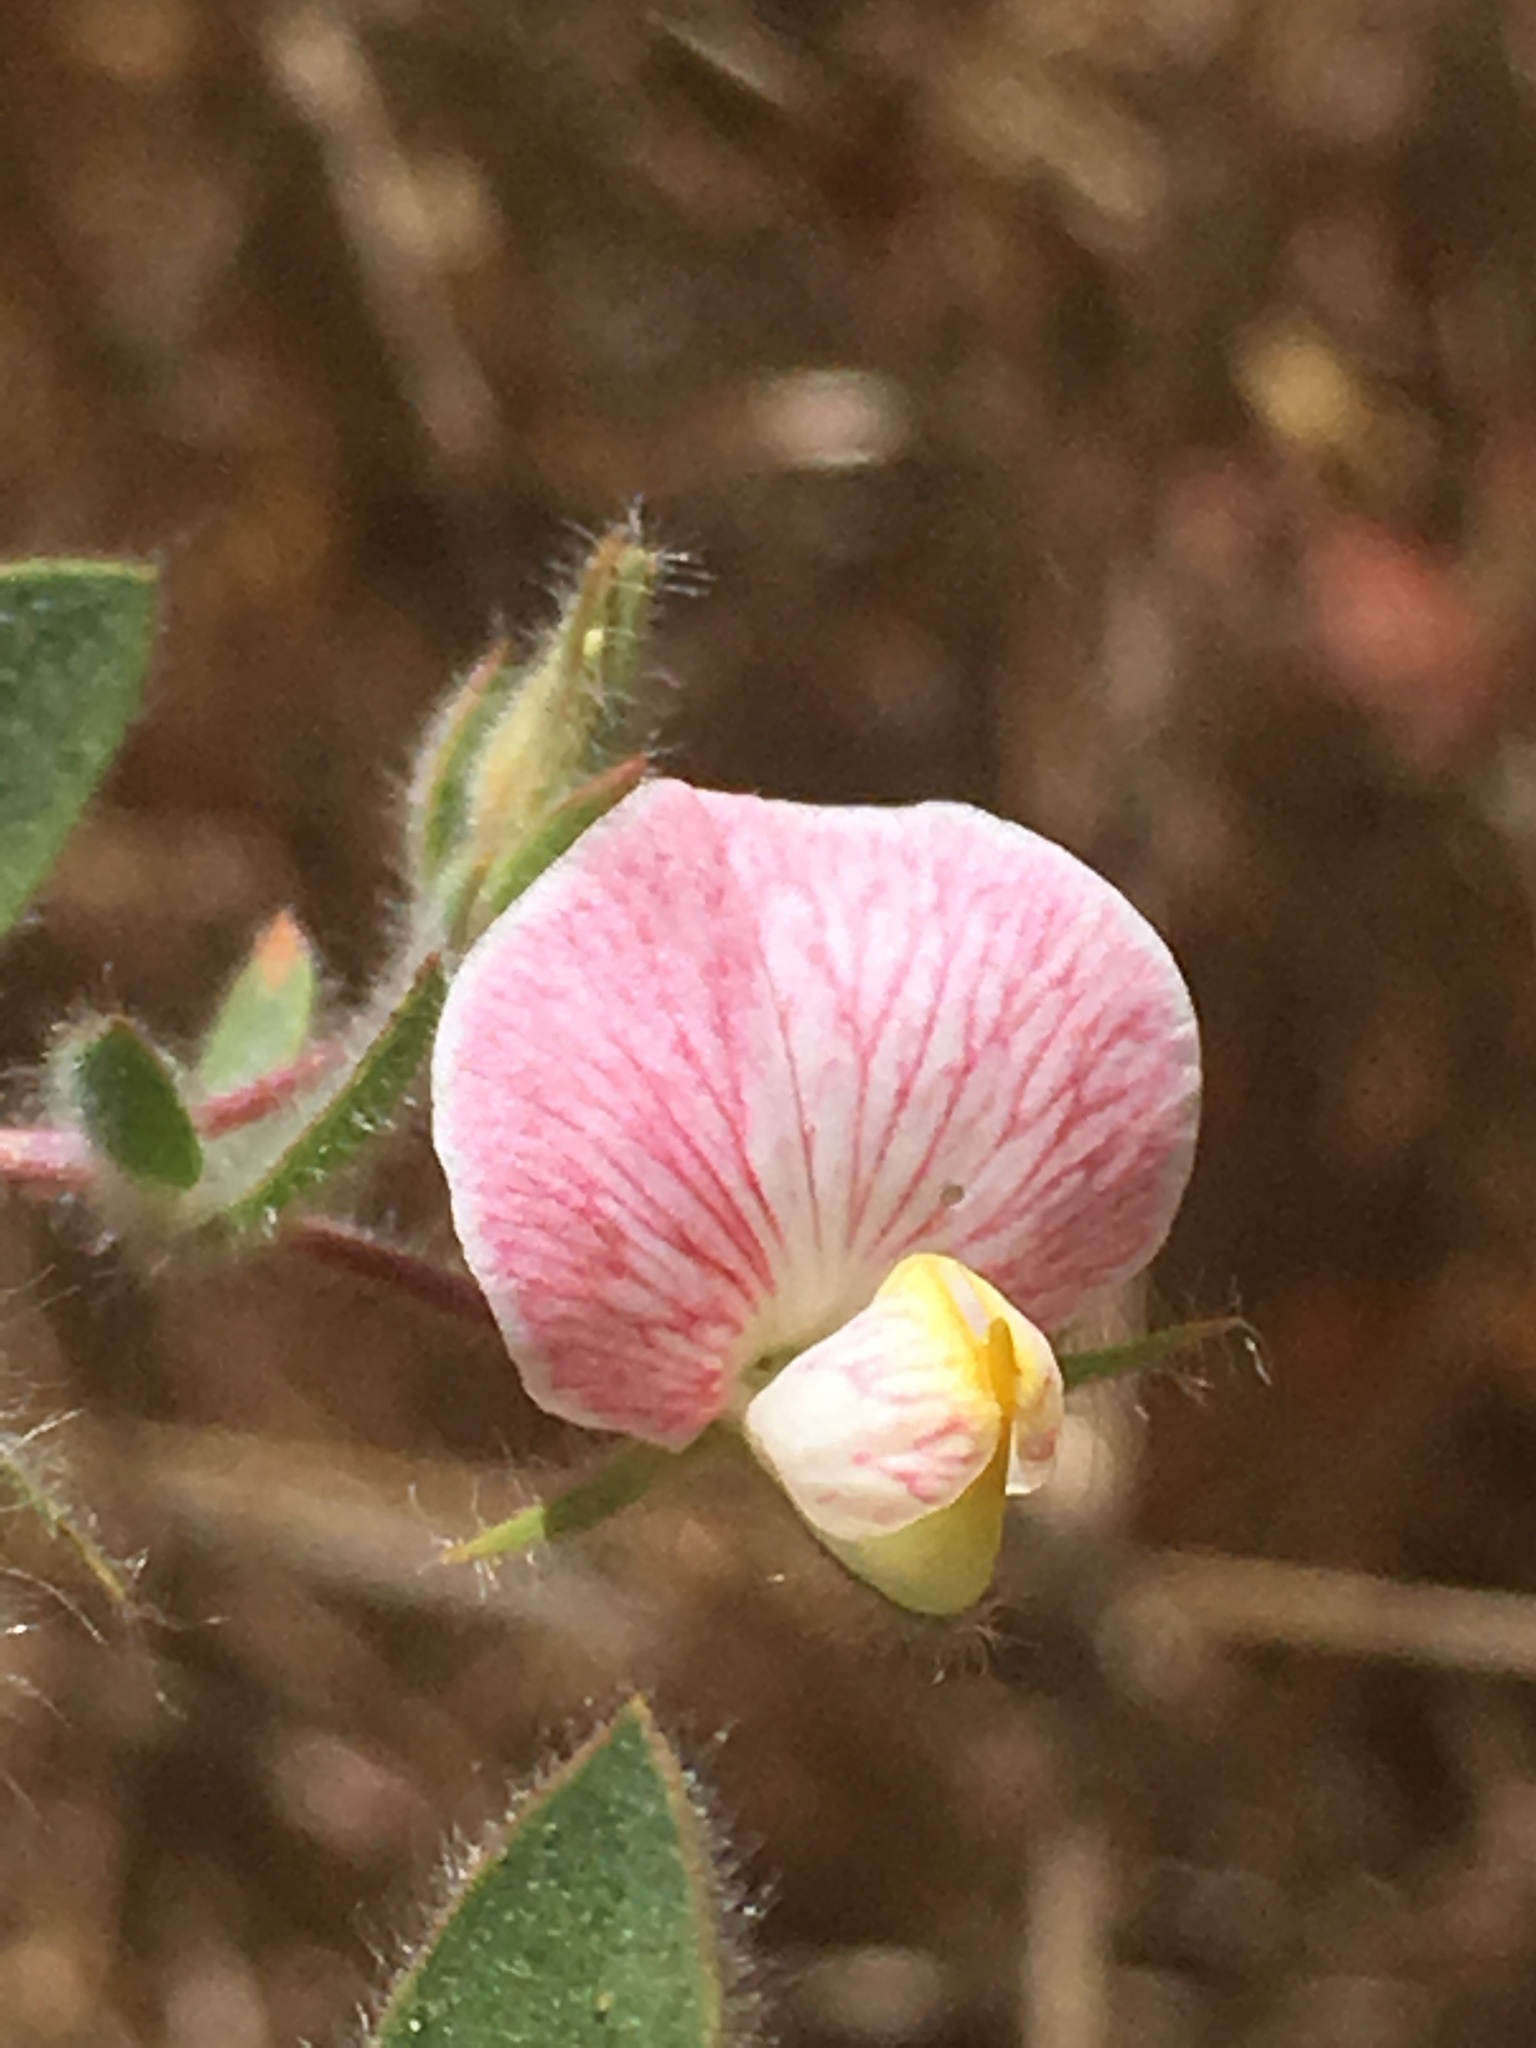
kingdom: Plantae
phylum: Tracheophyta
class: Magnoliopsida
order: Fabales
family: Fabaceae
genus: Acmispon
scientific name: Acmispon americanus
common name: American bird's-foot trefoil
